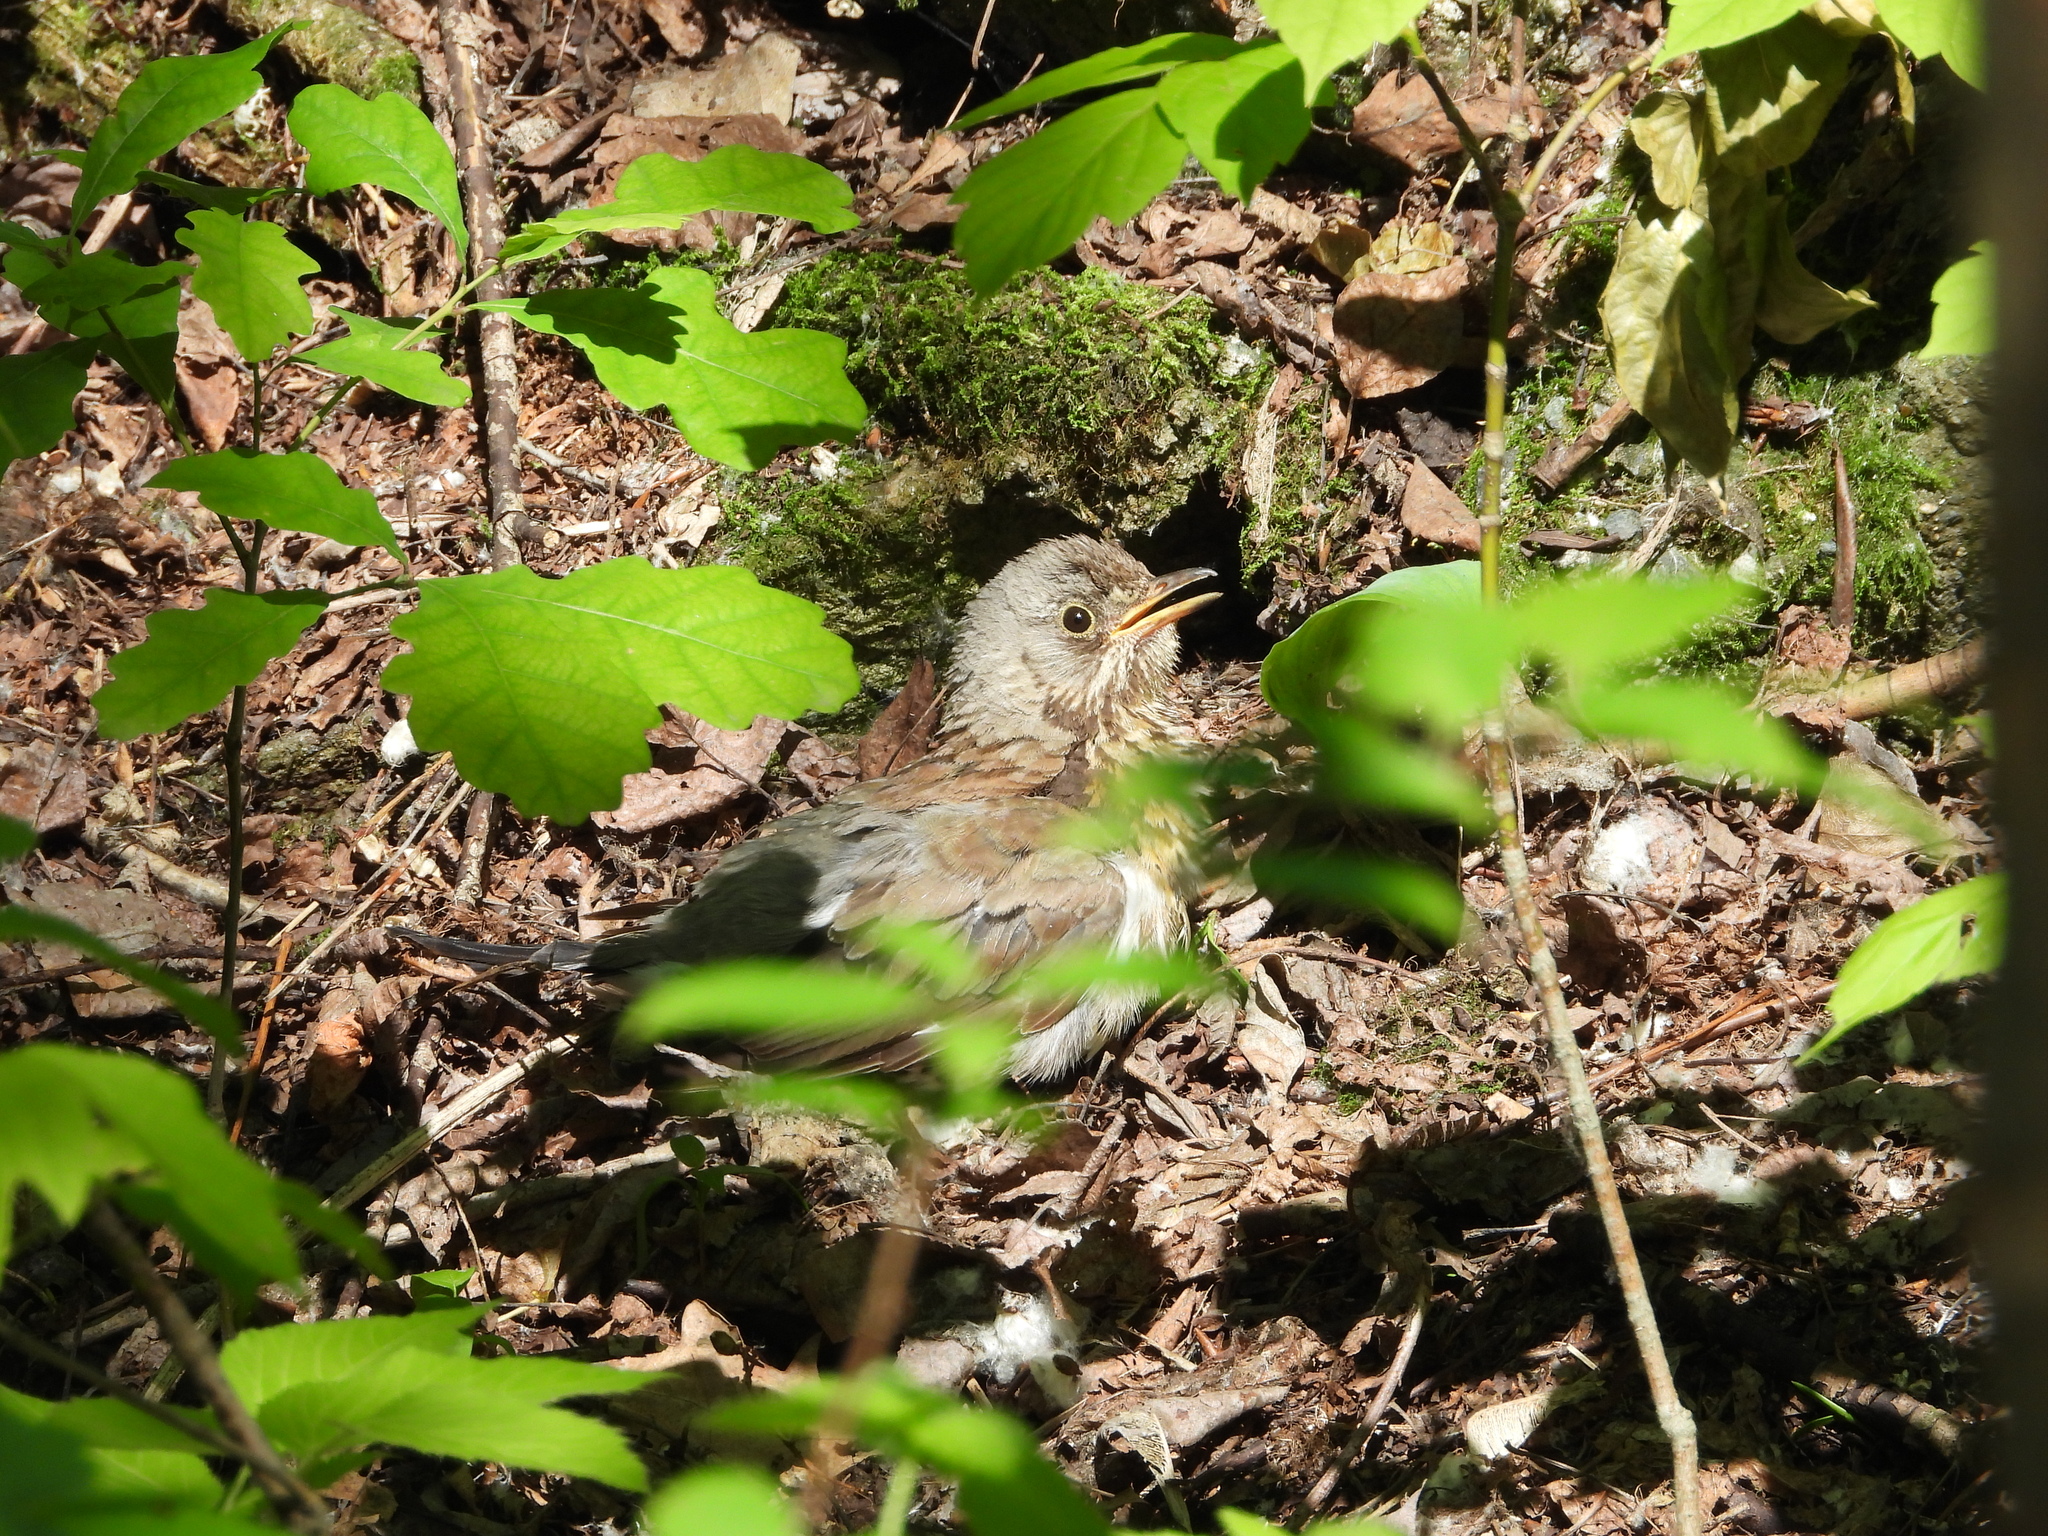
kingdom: Animalia
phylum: Chordata
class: Aves
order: Passeriformes
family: Turdidae
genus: Turdus
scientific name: Turdus pilaris
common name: Fieldfare
